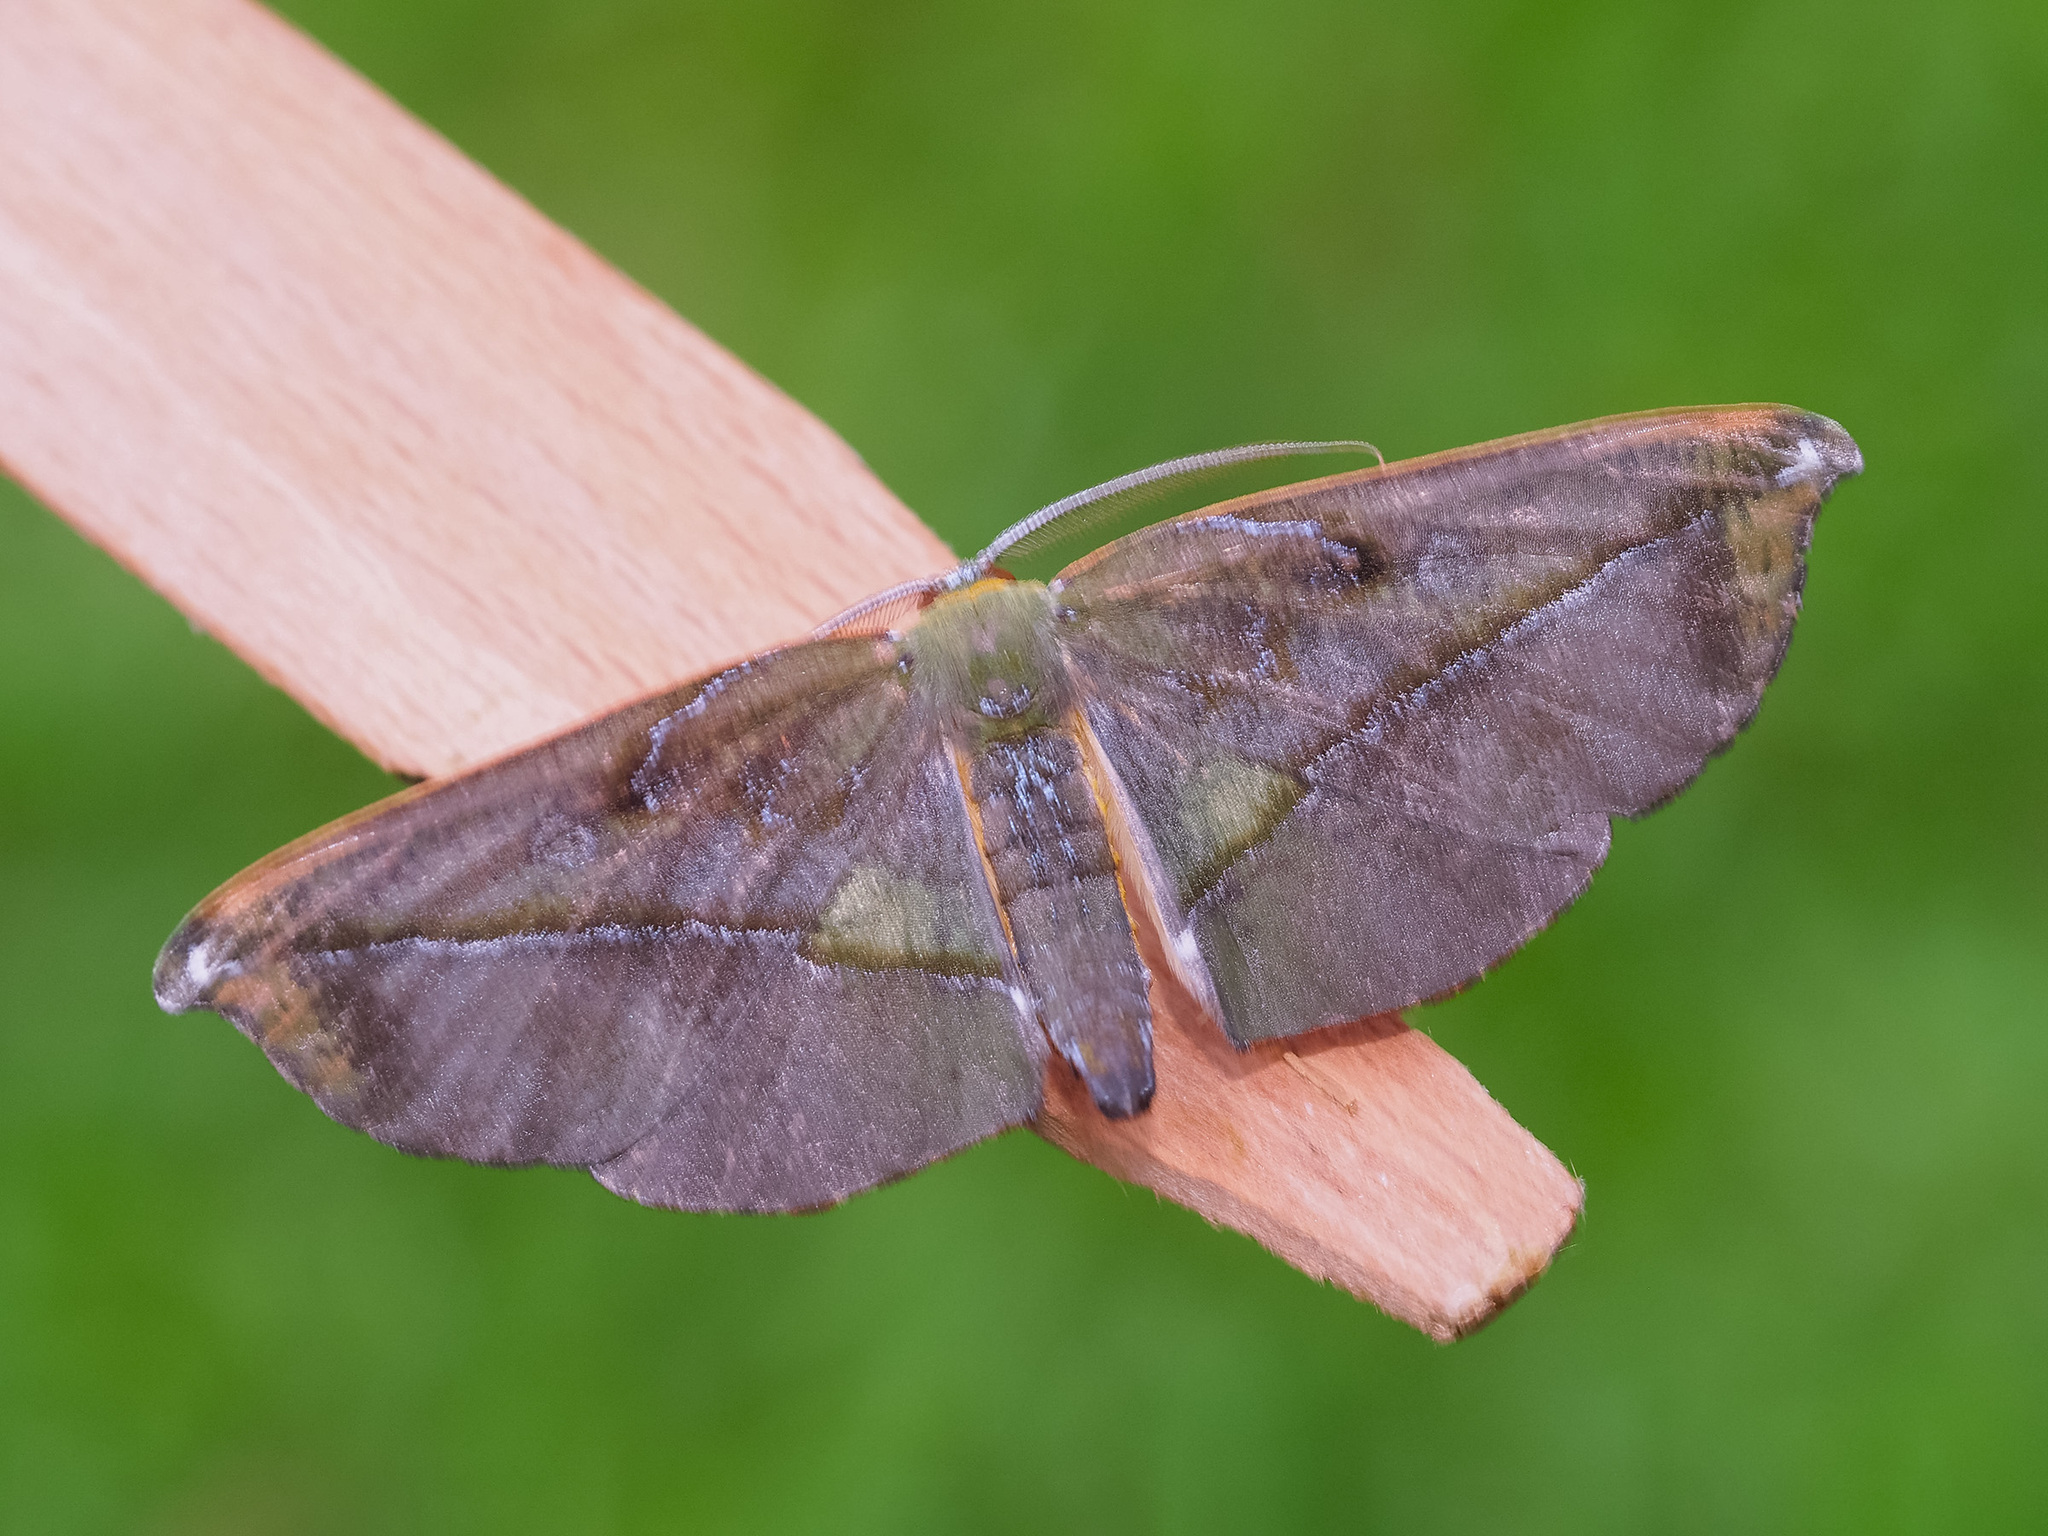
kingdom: Animalia
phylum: Arthropoda
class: Insecta
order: Lepidoptera
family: Geometridae
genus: Omiza
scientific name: Omiza lycoraria
